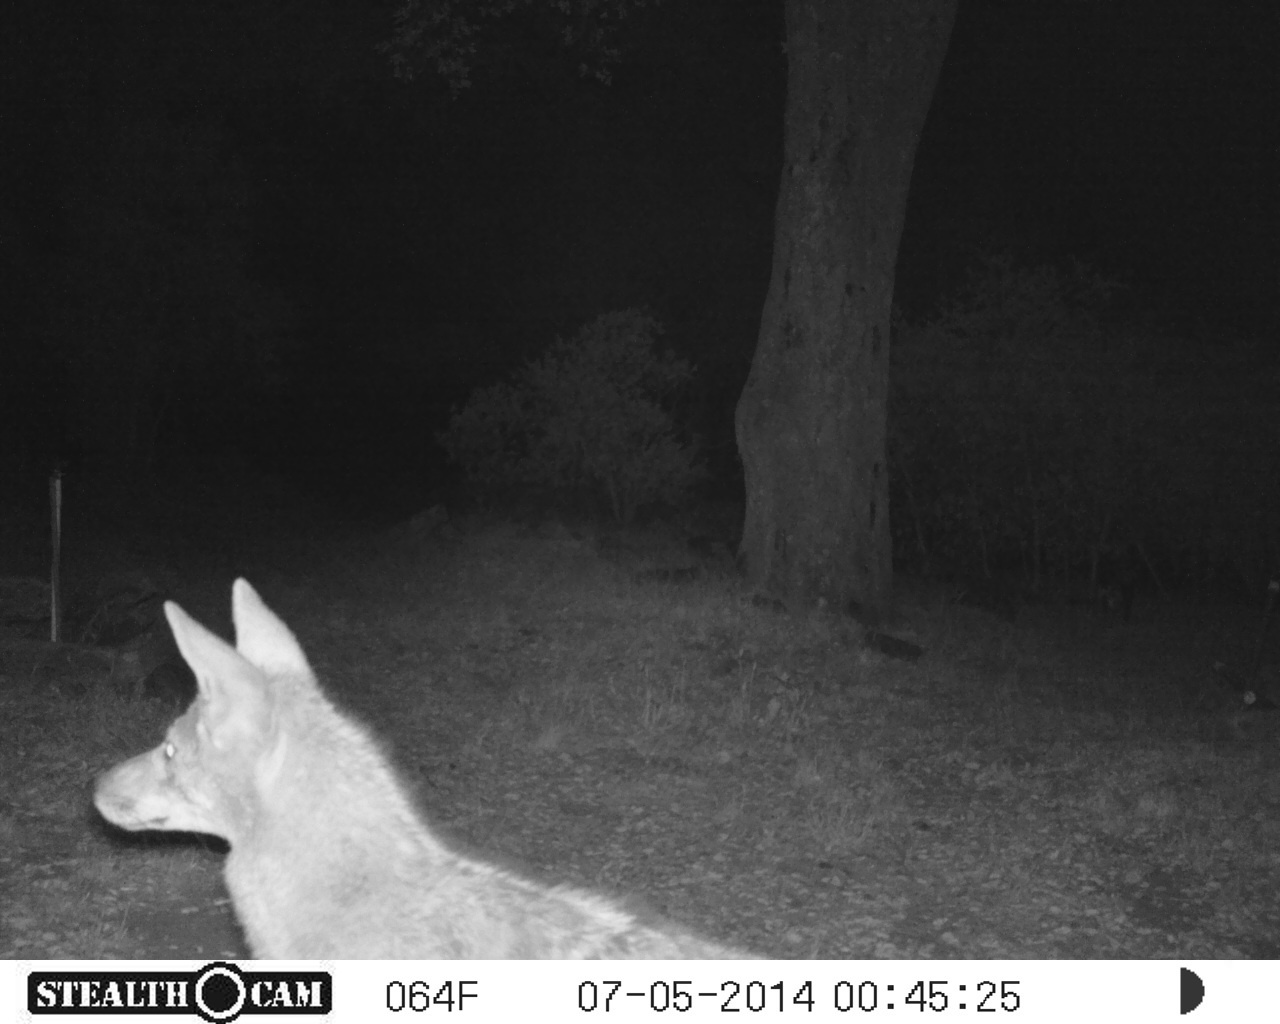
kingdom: Animalia
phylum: Chordata
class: Mammalia
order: Carnivora
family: Canidae
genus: Canis
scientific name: Canis latrans
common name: Coyote
